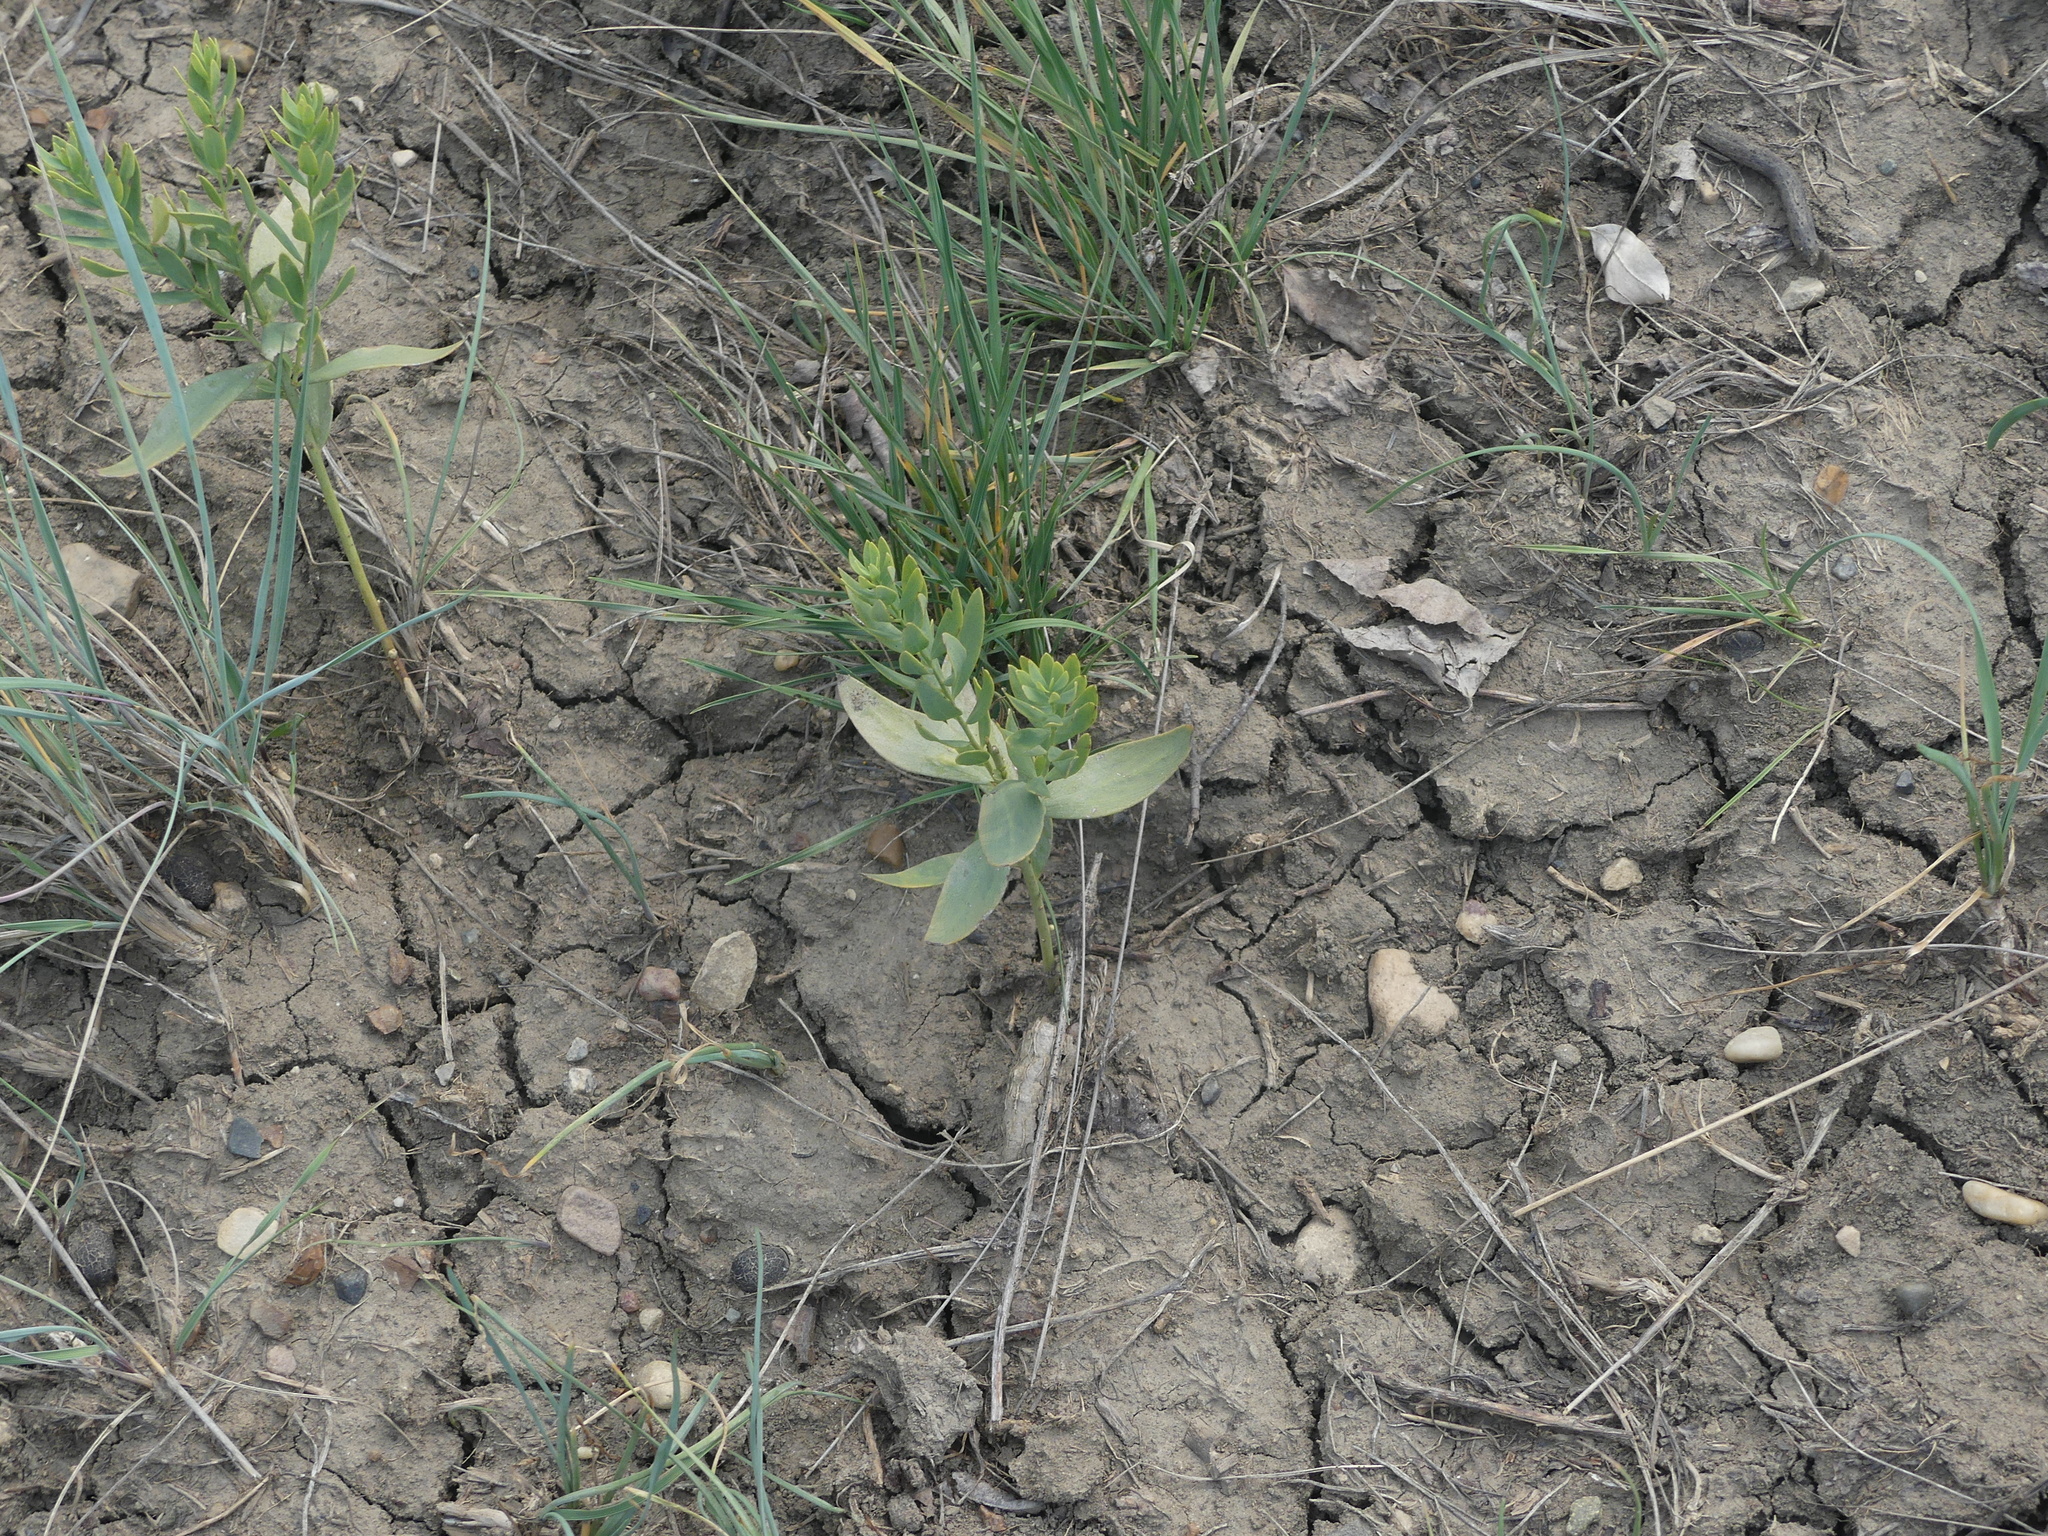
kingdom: Plantae
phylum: Tracheophyta
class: Magnoliopsida
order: Santalales
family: Comandraceae
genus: Comandra
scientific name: Comandra umbellata
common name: Bastard toadflax
